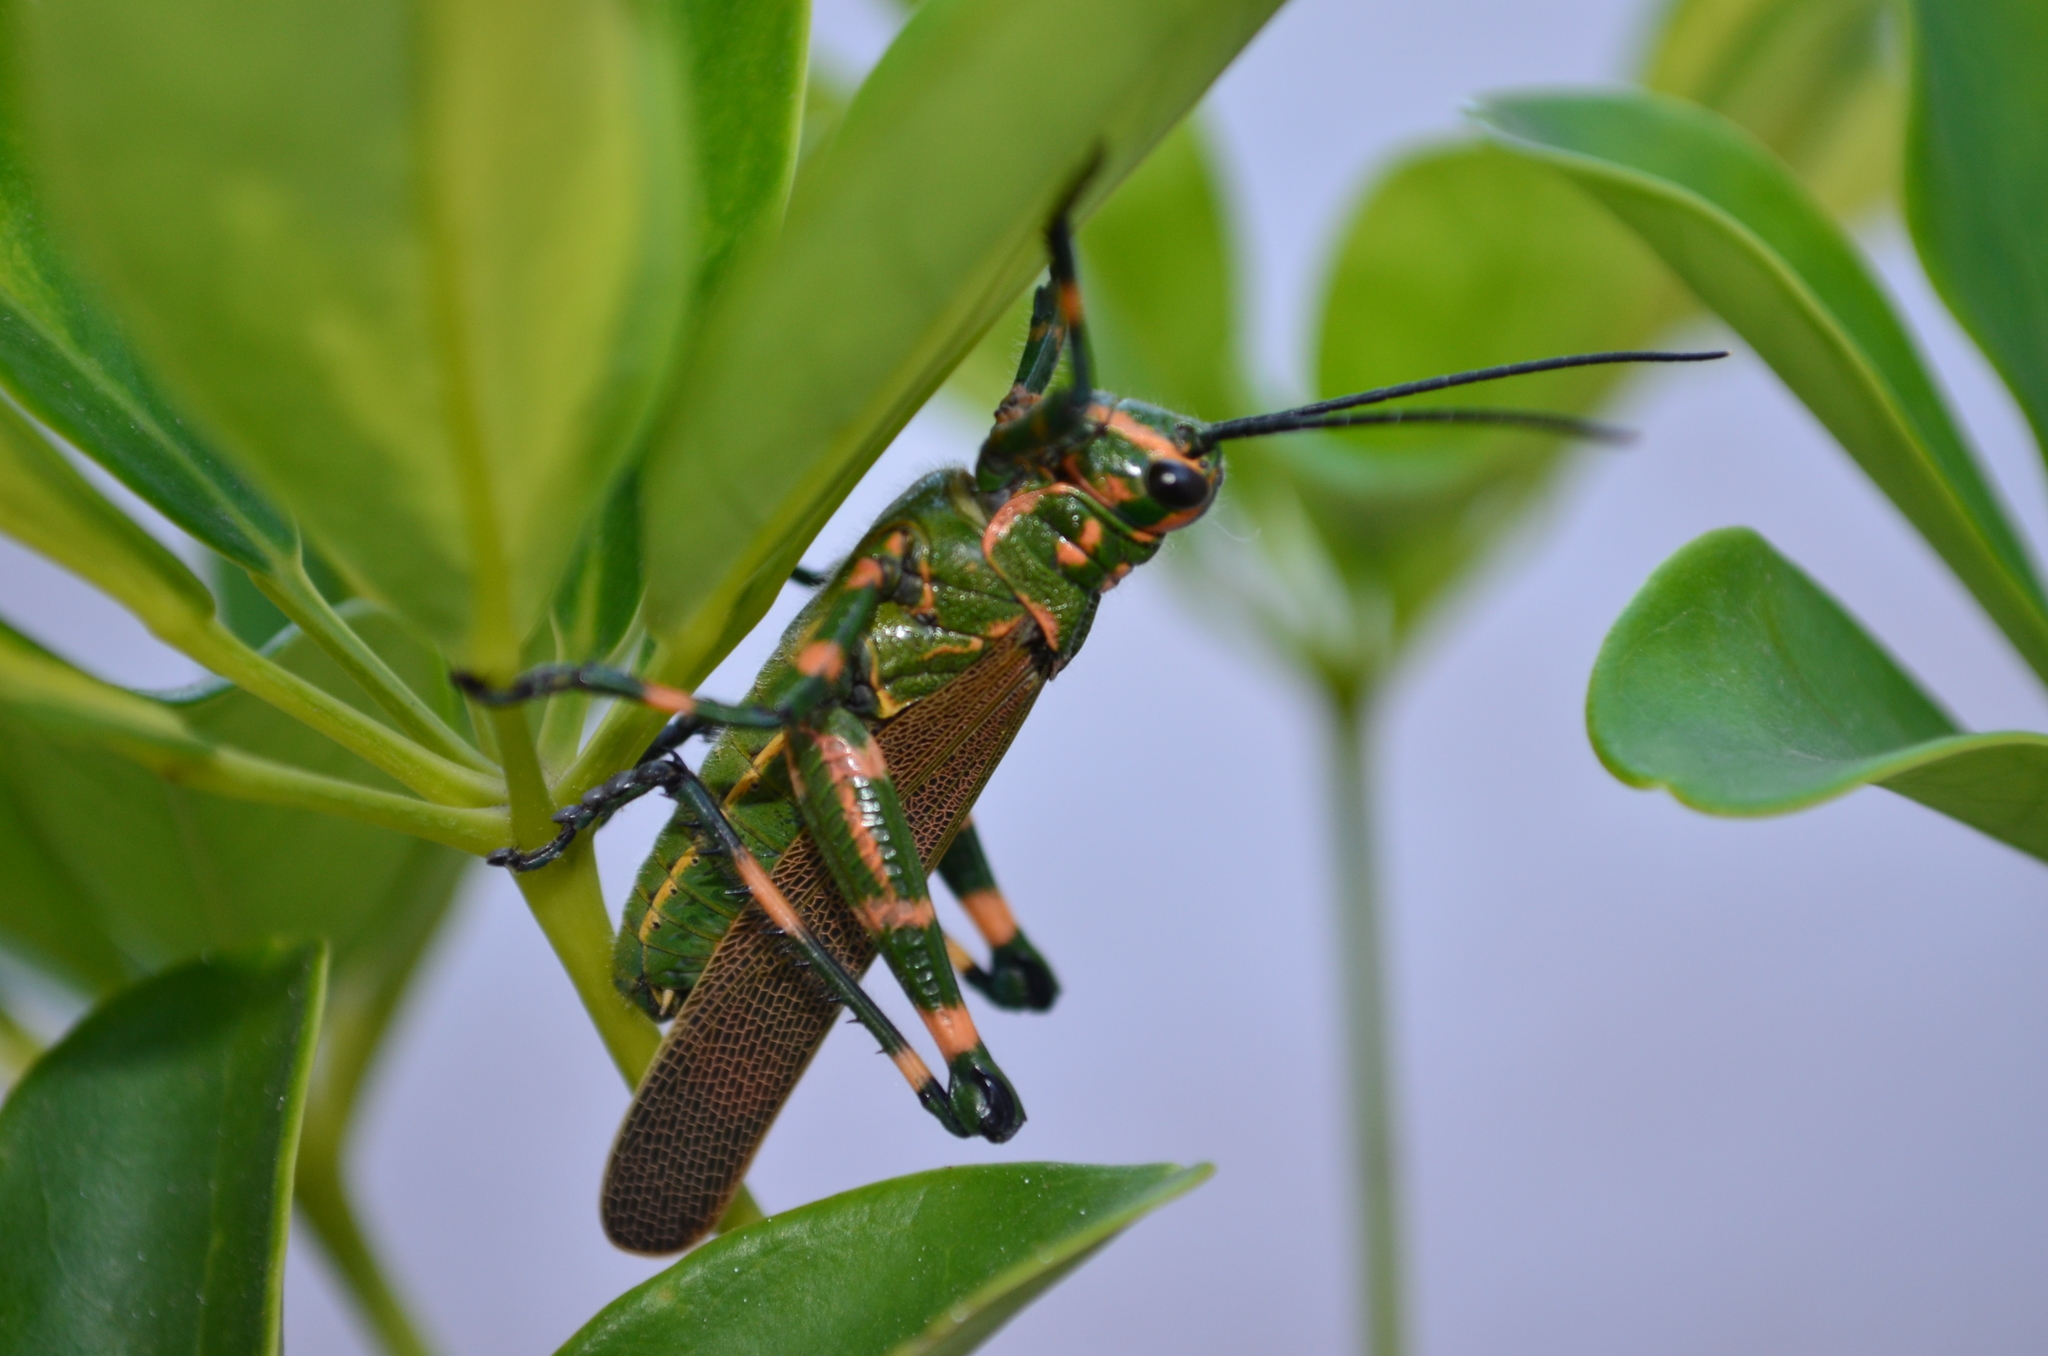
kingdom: Animalia
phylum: Arthropoda
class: Insecta
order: Orthoptera
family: Romaleidae
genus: Chromacris
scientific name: Chromacris speciosa
